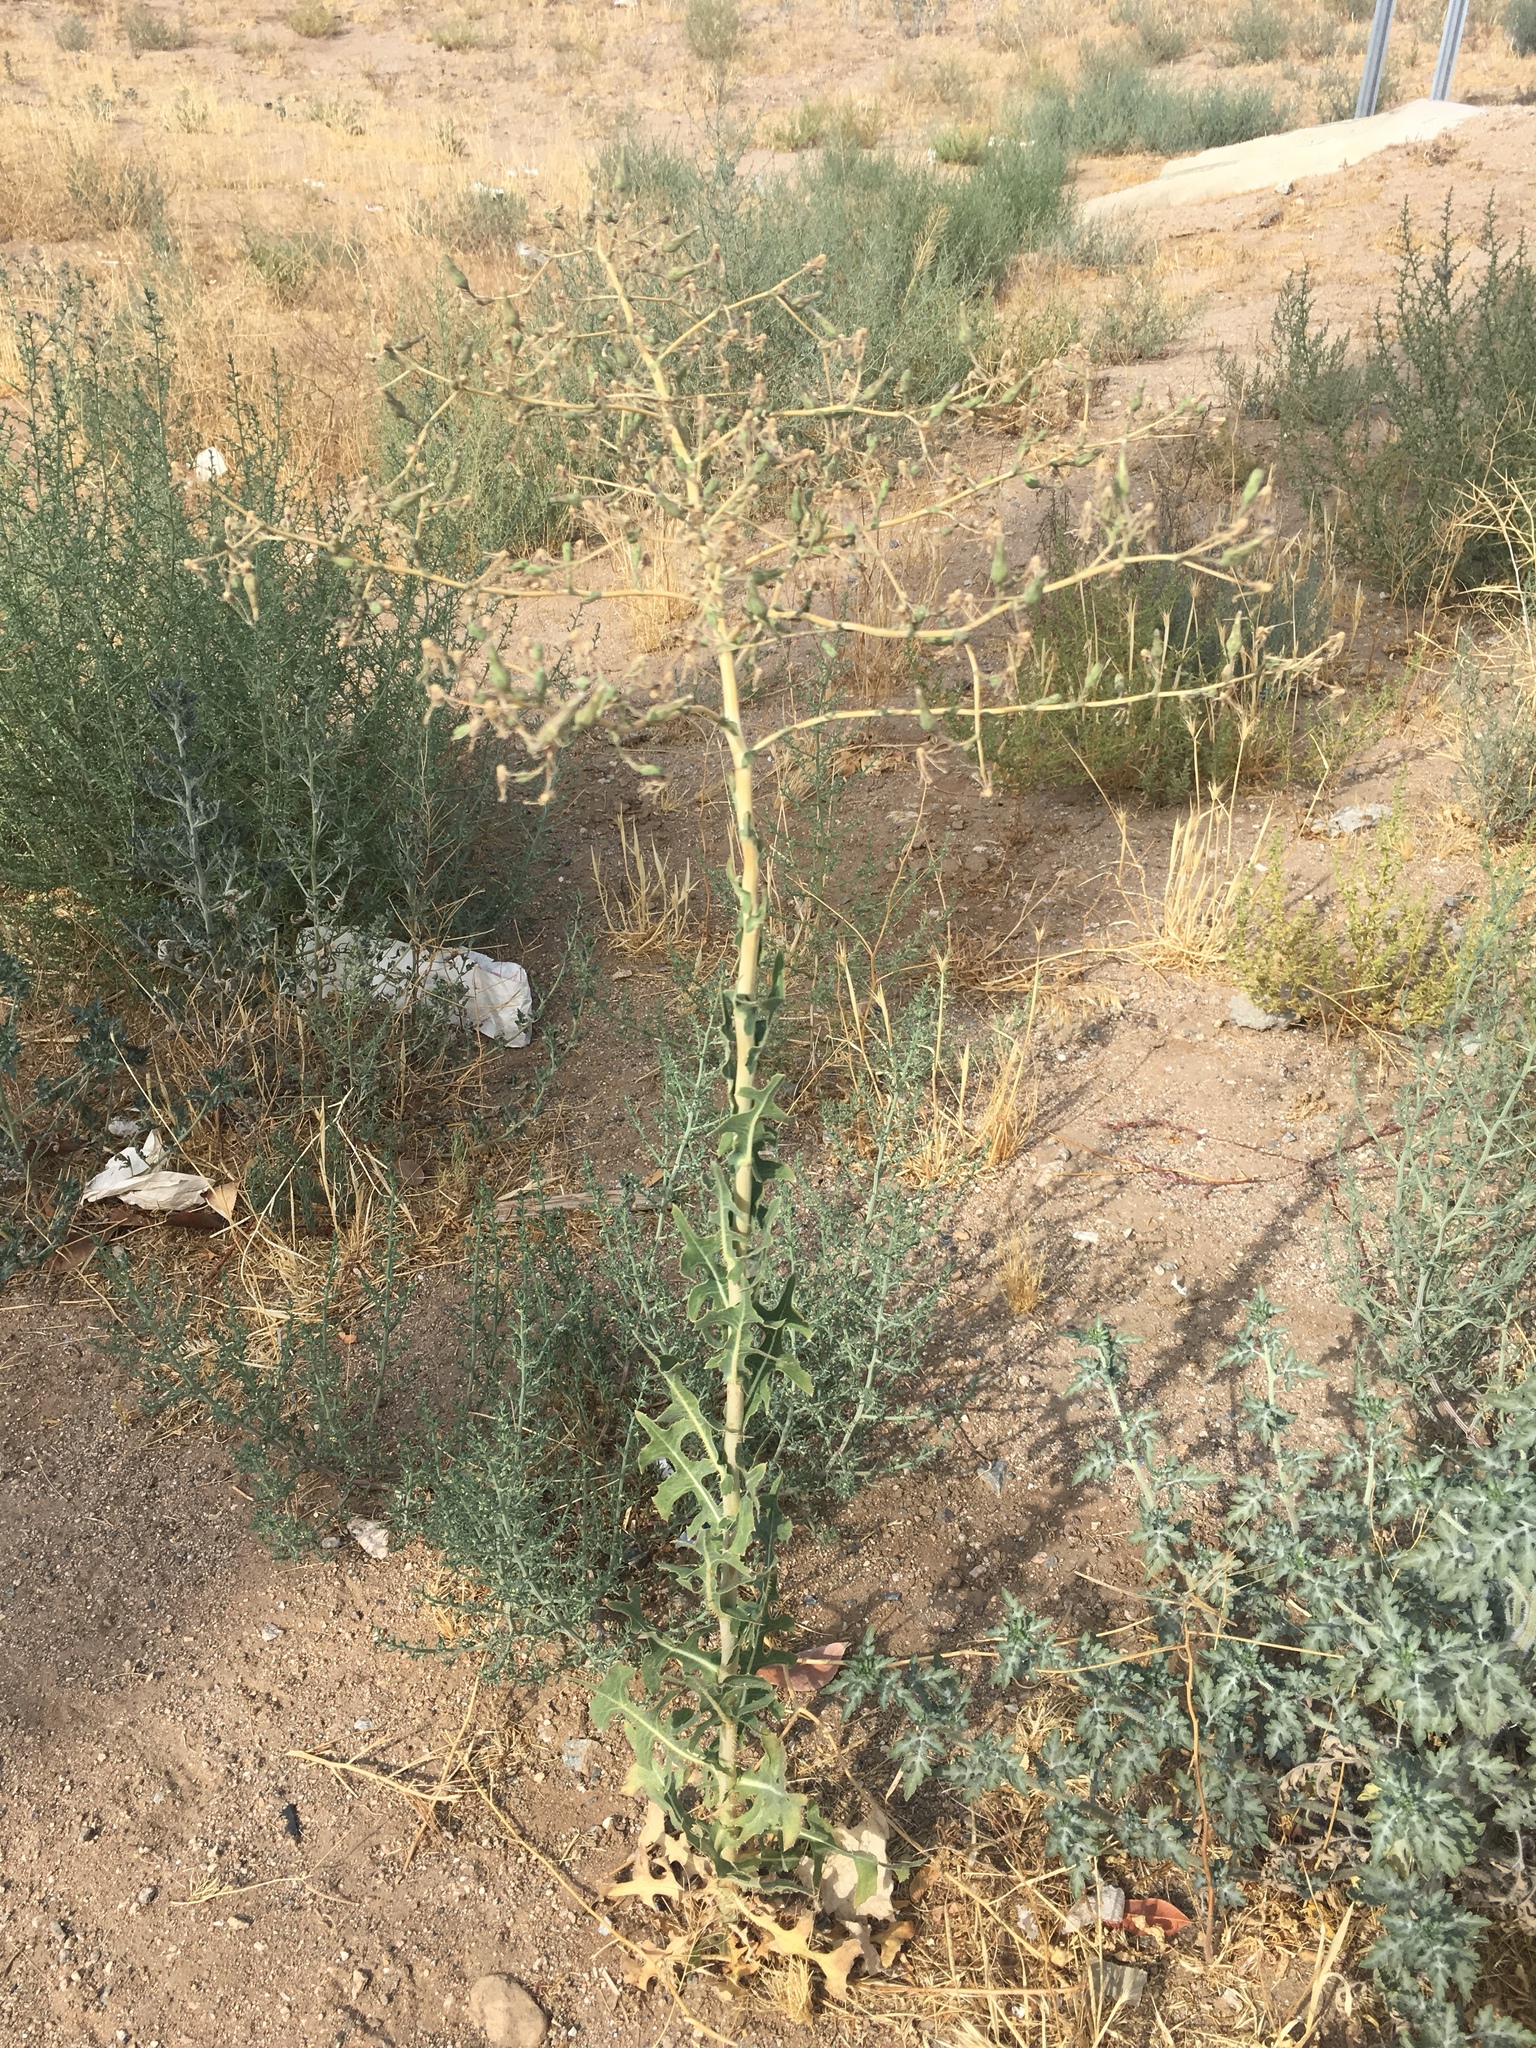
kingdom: Plantae
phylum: Tracheophyta
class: Magnoliopsida
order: Asterales
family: Asteraceae
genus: Lactuca
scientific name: Lactuca serriola
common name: Prickly lettuce
